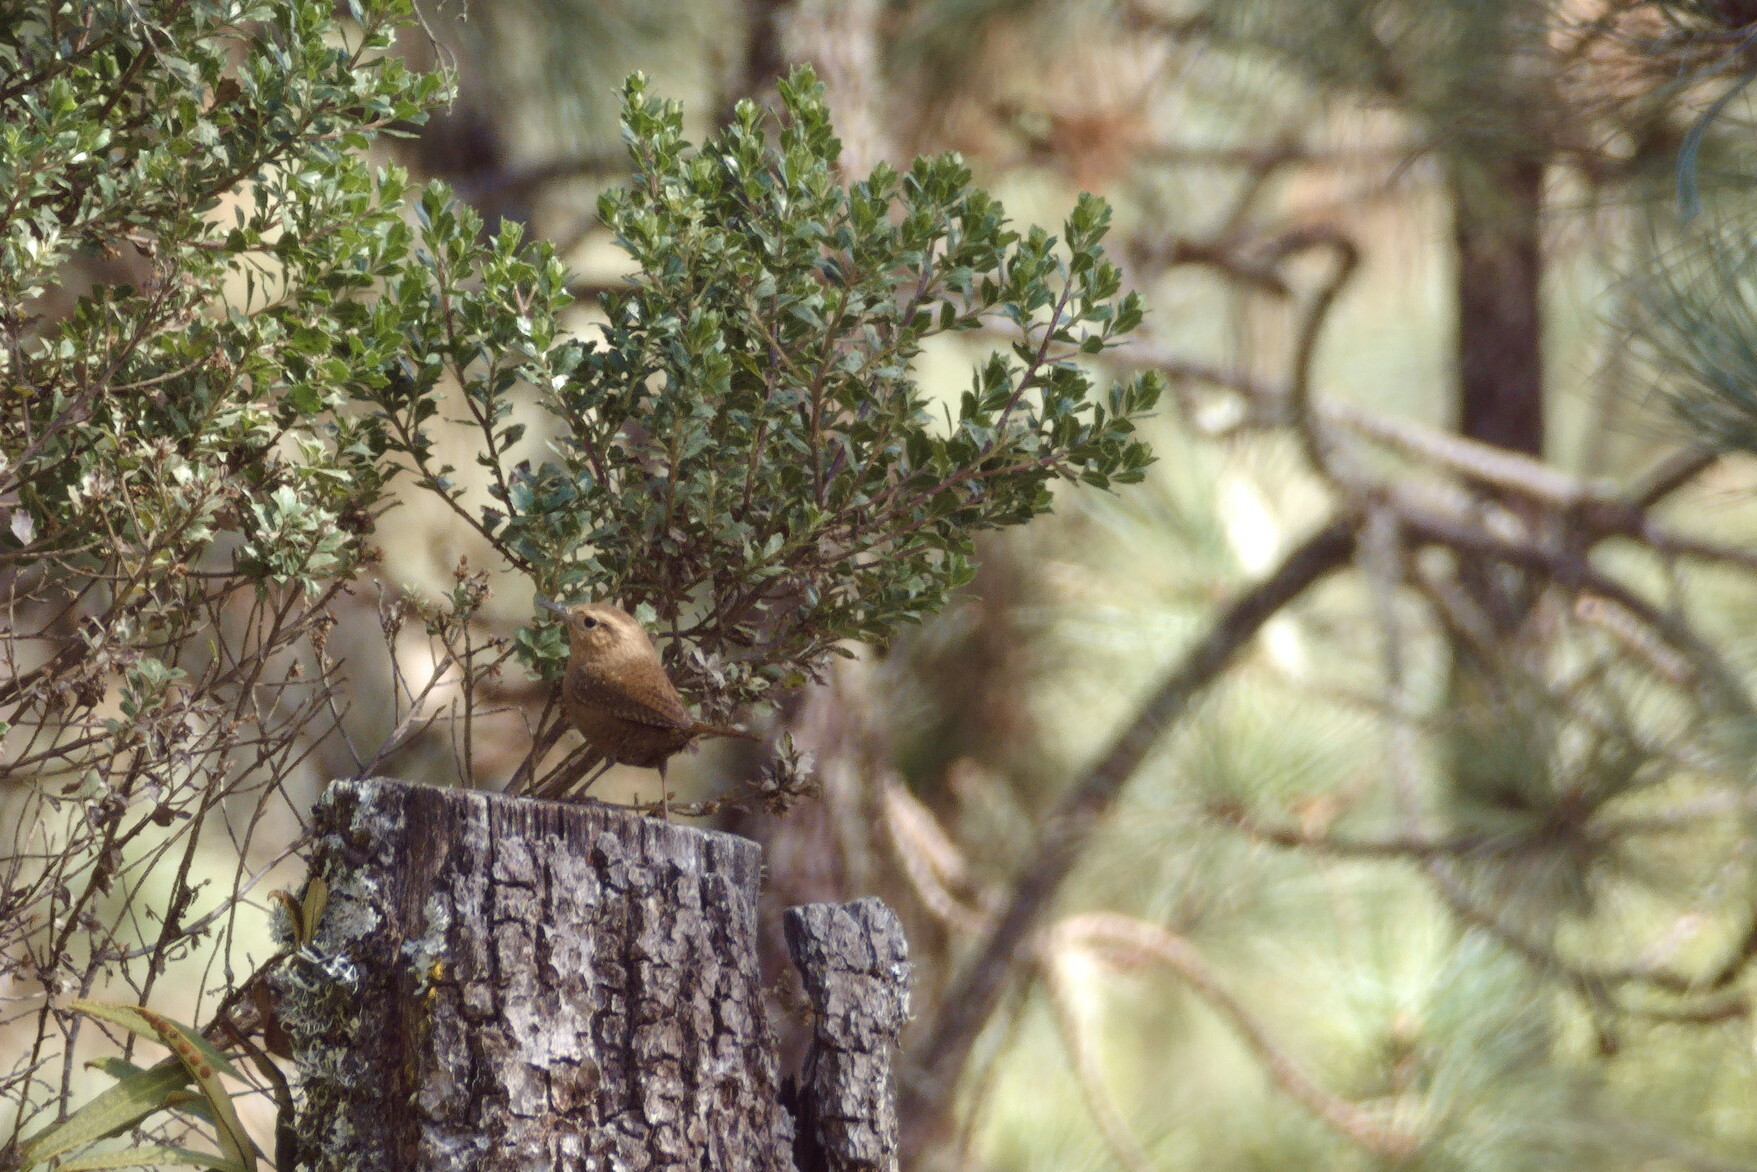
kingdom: Animalia
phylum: Chordata
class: Aves
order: Passeriformes
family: Troglodytidae
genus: Troglodytes
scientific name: Troglodytes aedon
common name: House wren
